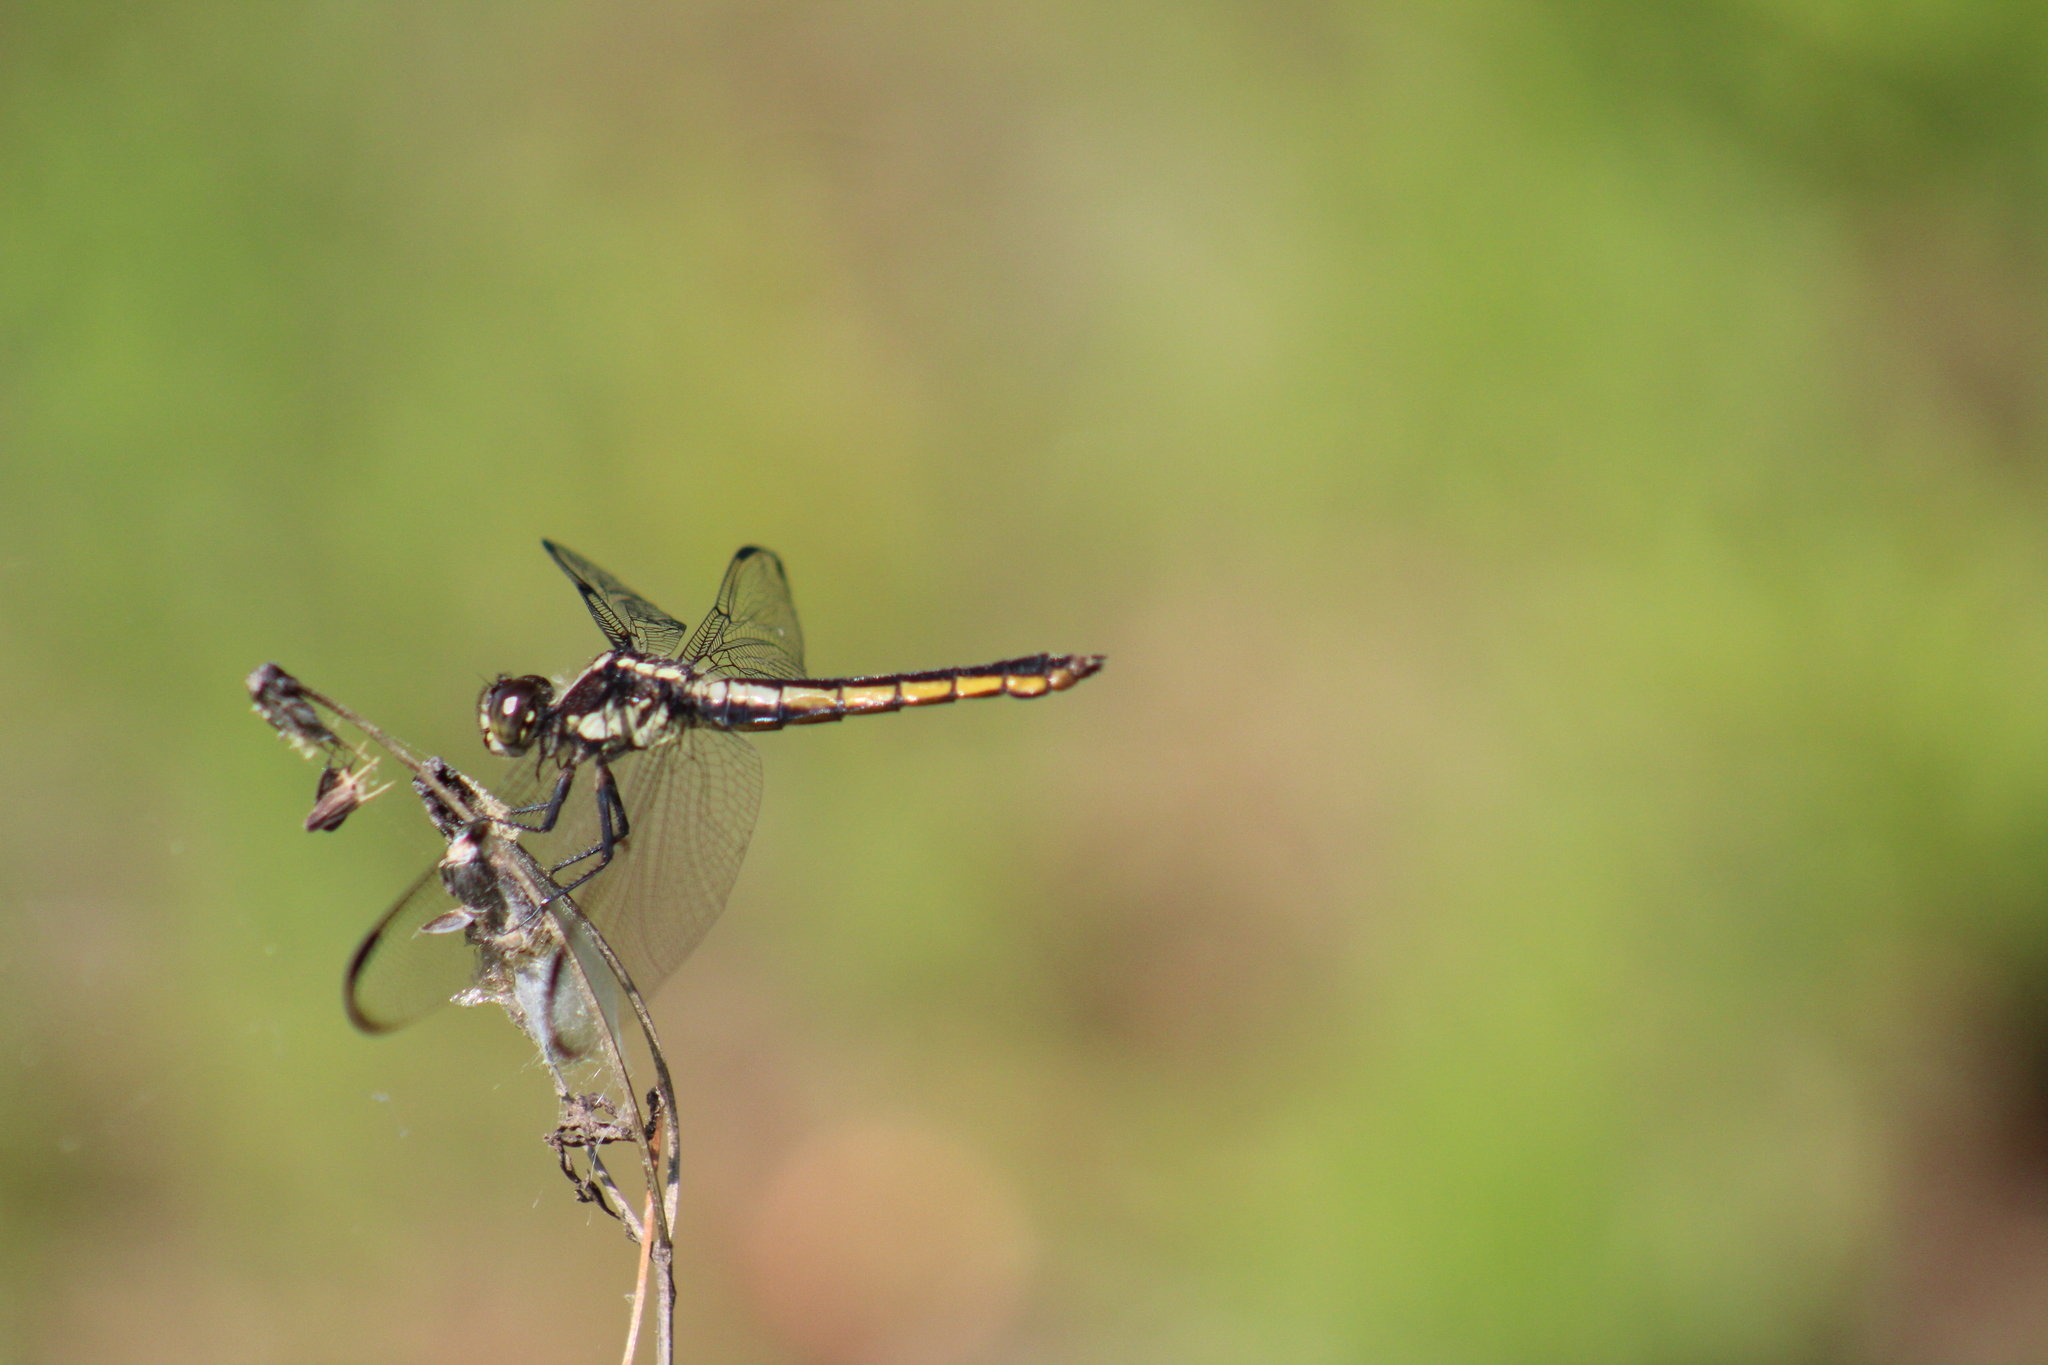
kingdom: Animalia
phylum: Arthropoda
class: Insecta
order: Odonata
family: Libellulidae
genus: Libellula
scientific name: Libellula incesta
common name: Slaty skimmer
